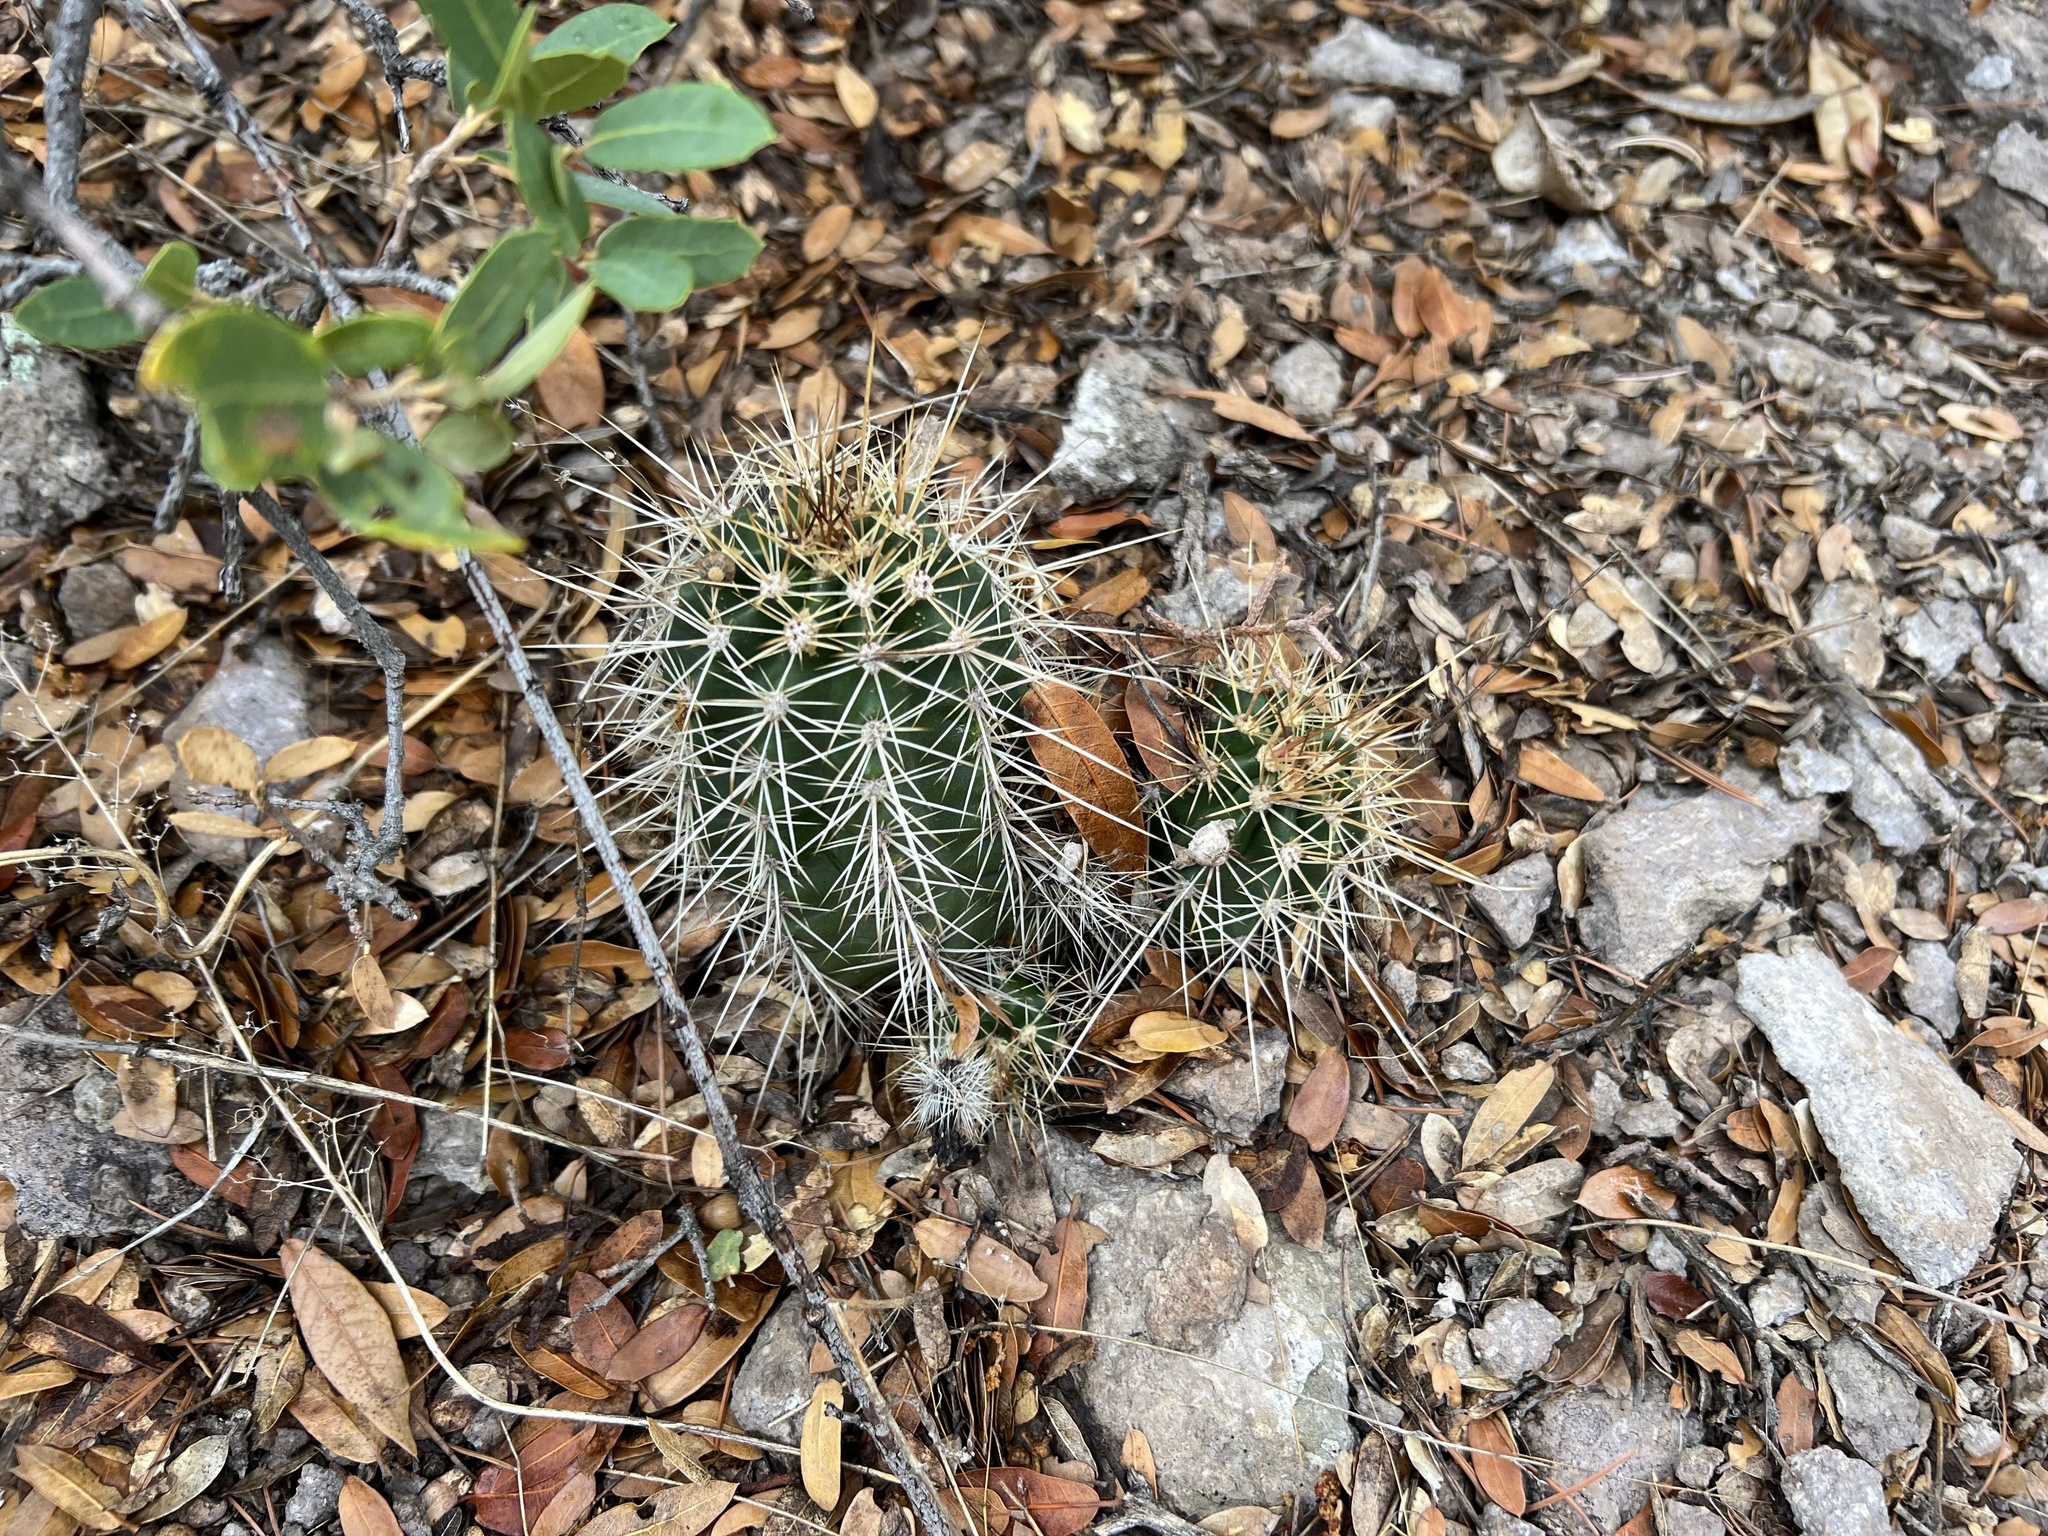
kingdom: Plantae
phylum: Tracheophyta
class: Magnoliopsida
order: Caryophyllales
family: Cactaceae
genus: Echinocereus
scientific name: Echinocereus coccineus
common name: Scarlet hedgehog cactus
